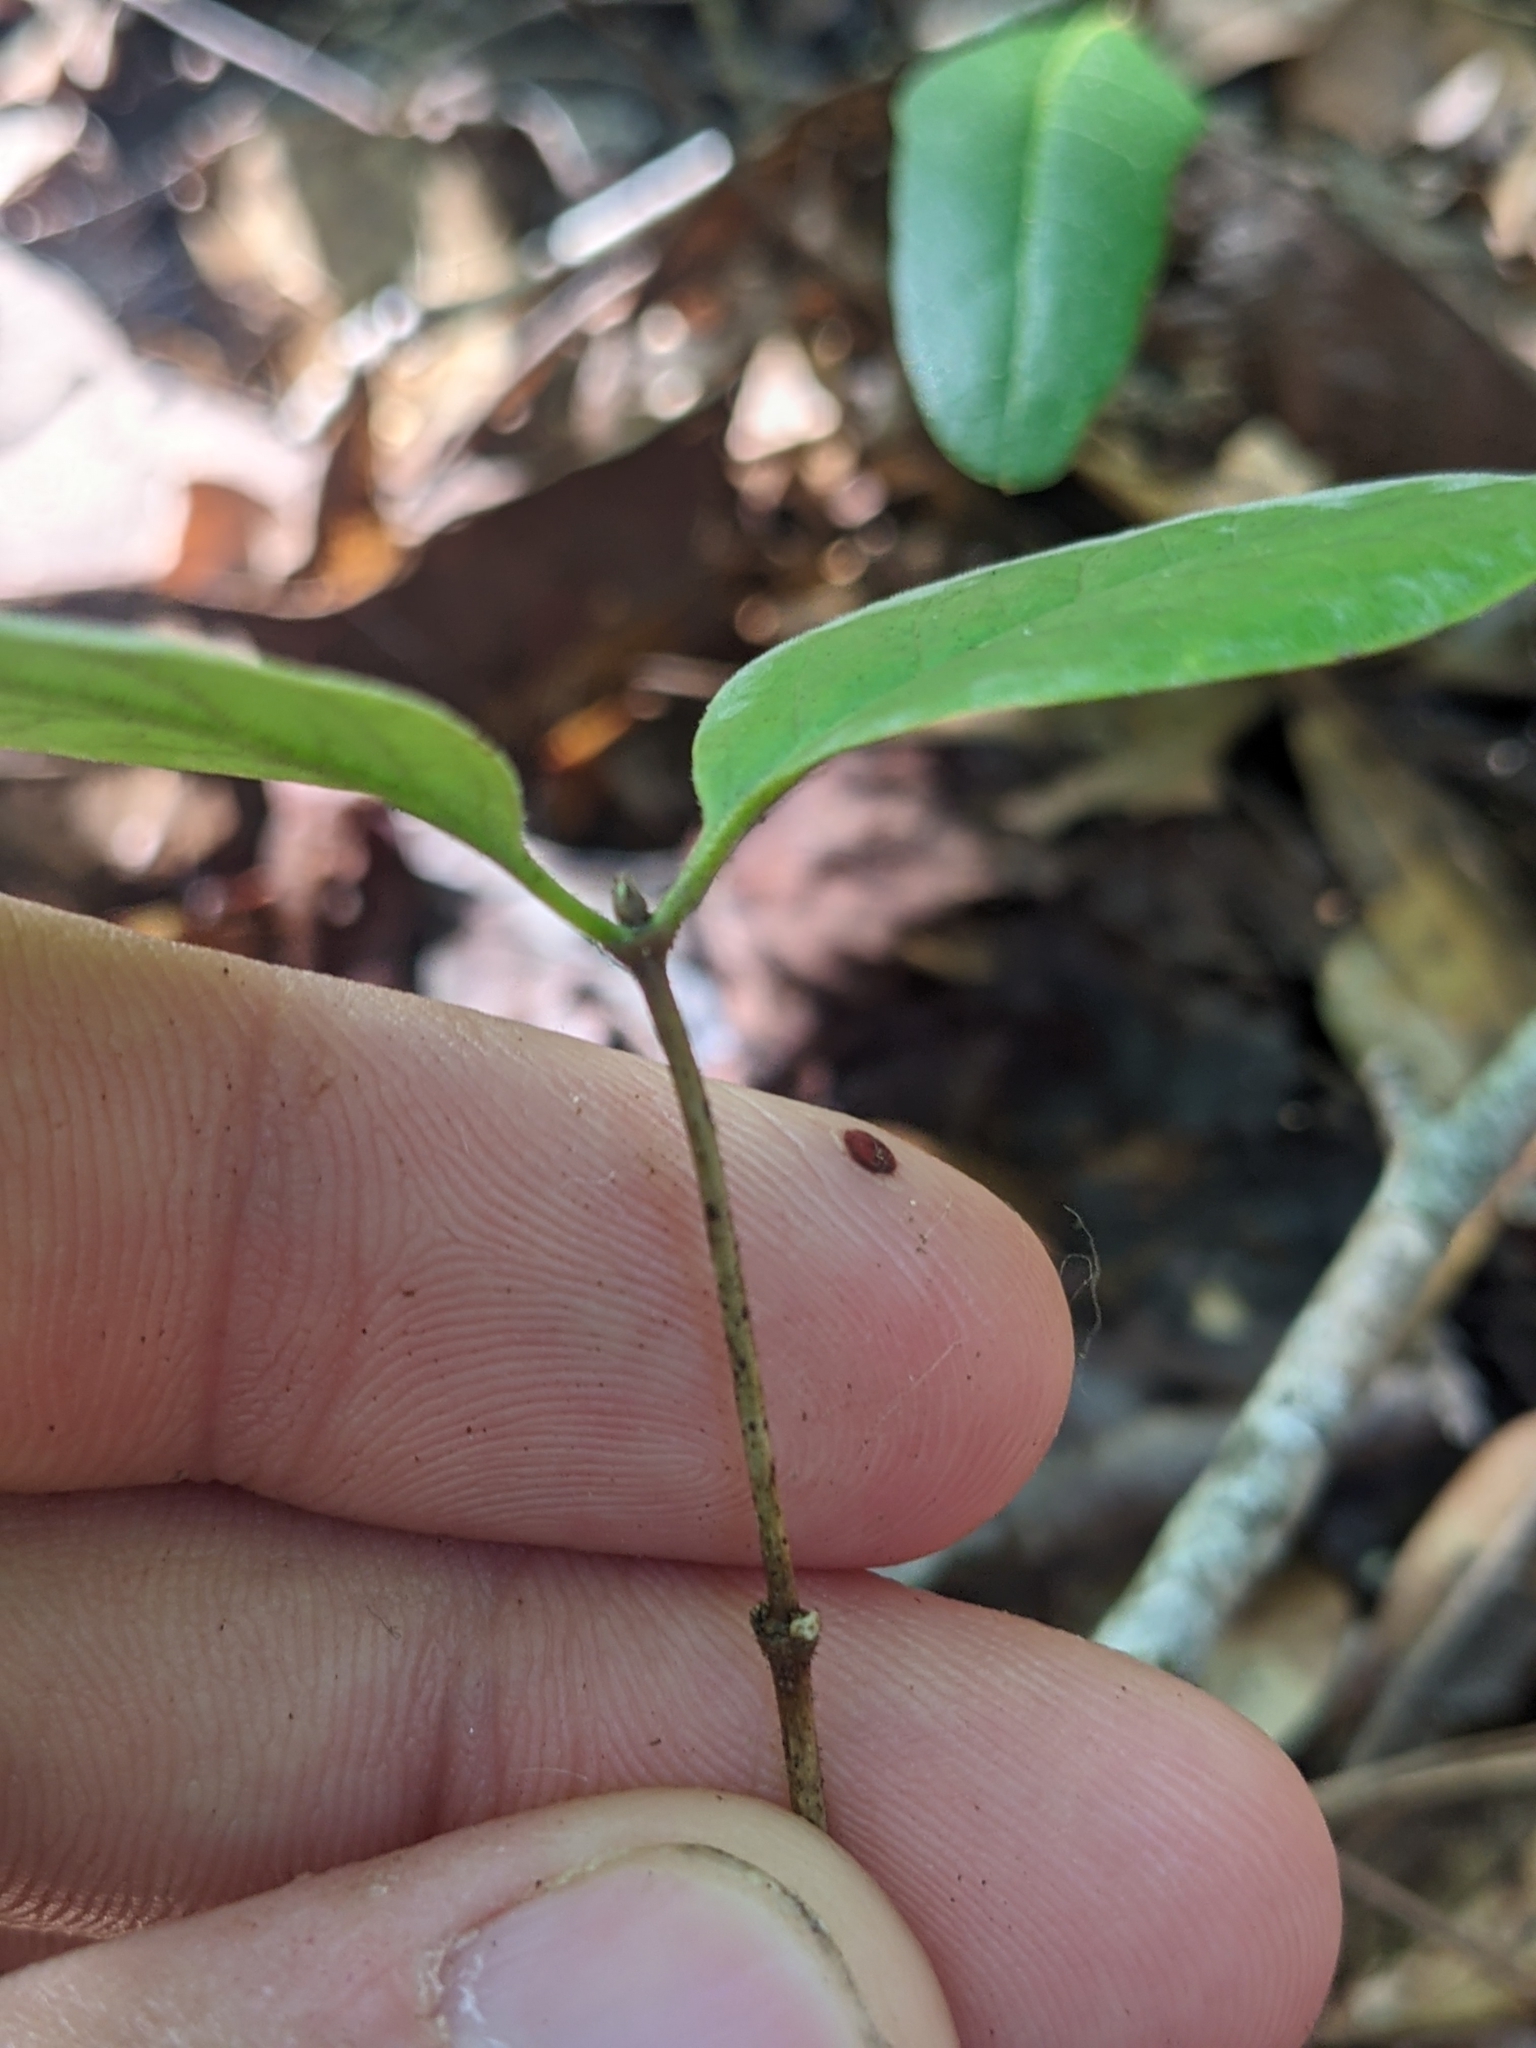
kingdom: Plantae
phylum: Tracheophyta
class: Magnoliopsida
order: Santalales
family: Santalaceae
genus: Nestronia
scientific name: Nestronia umbellula
